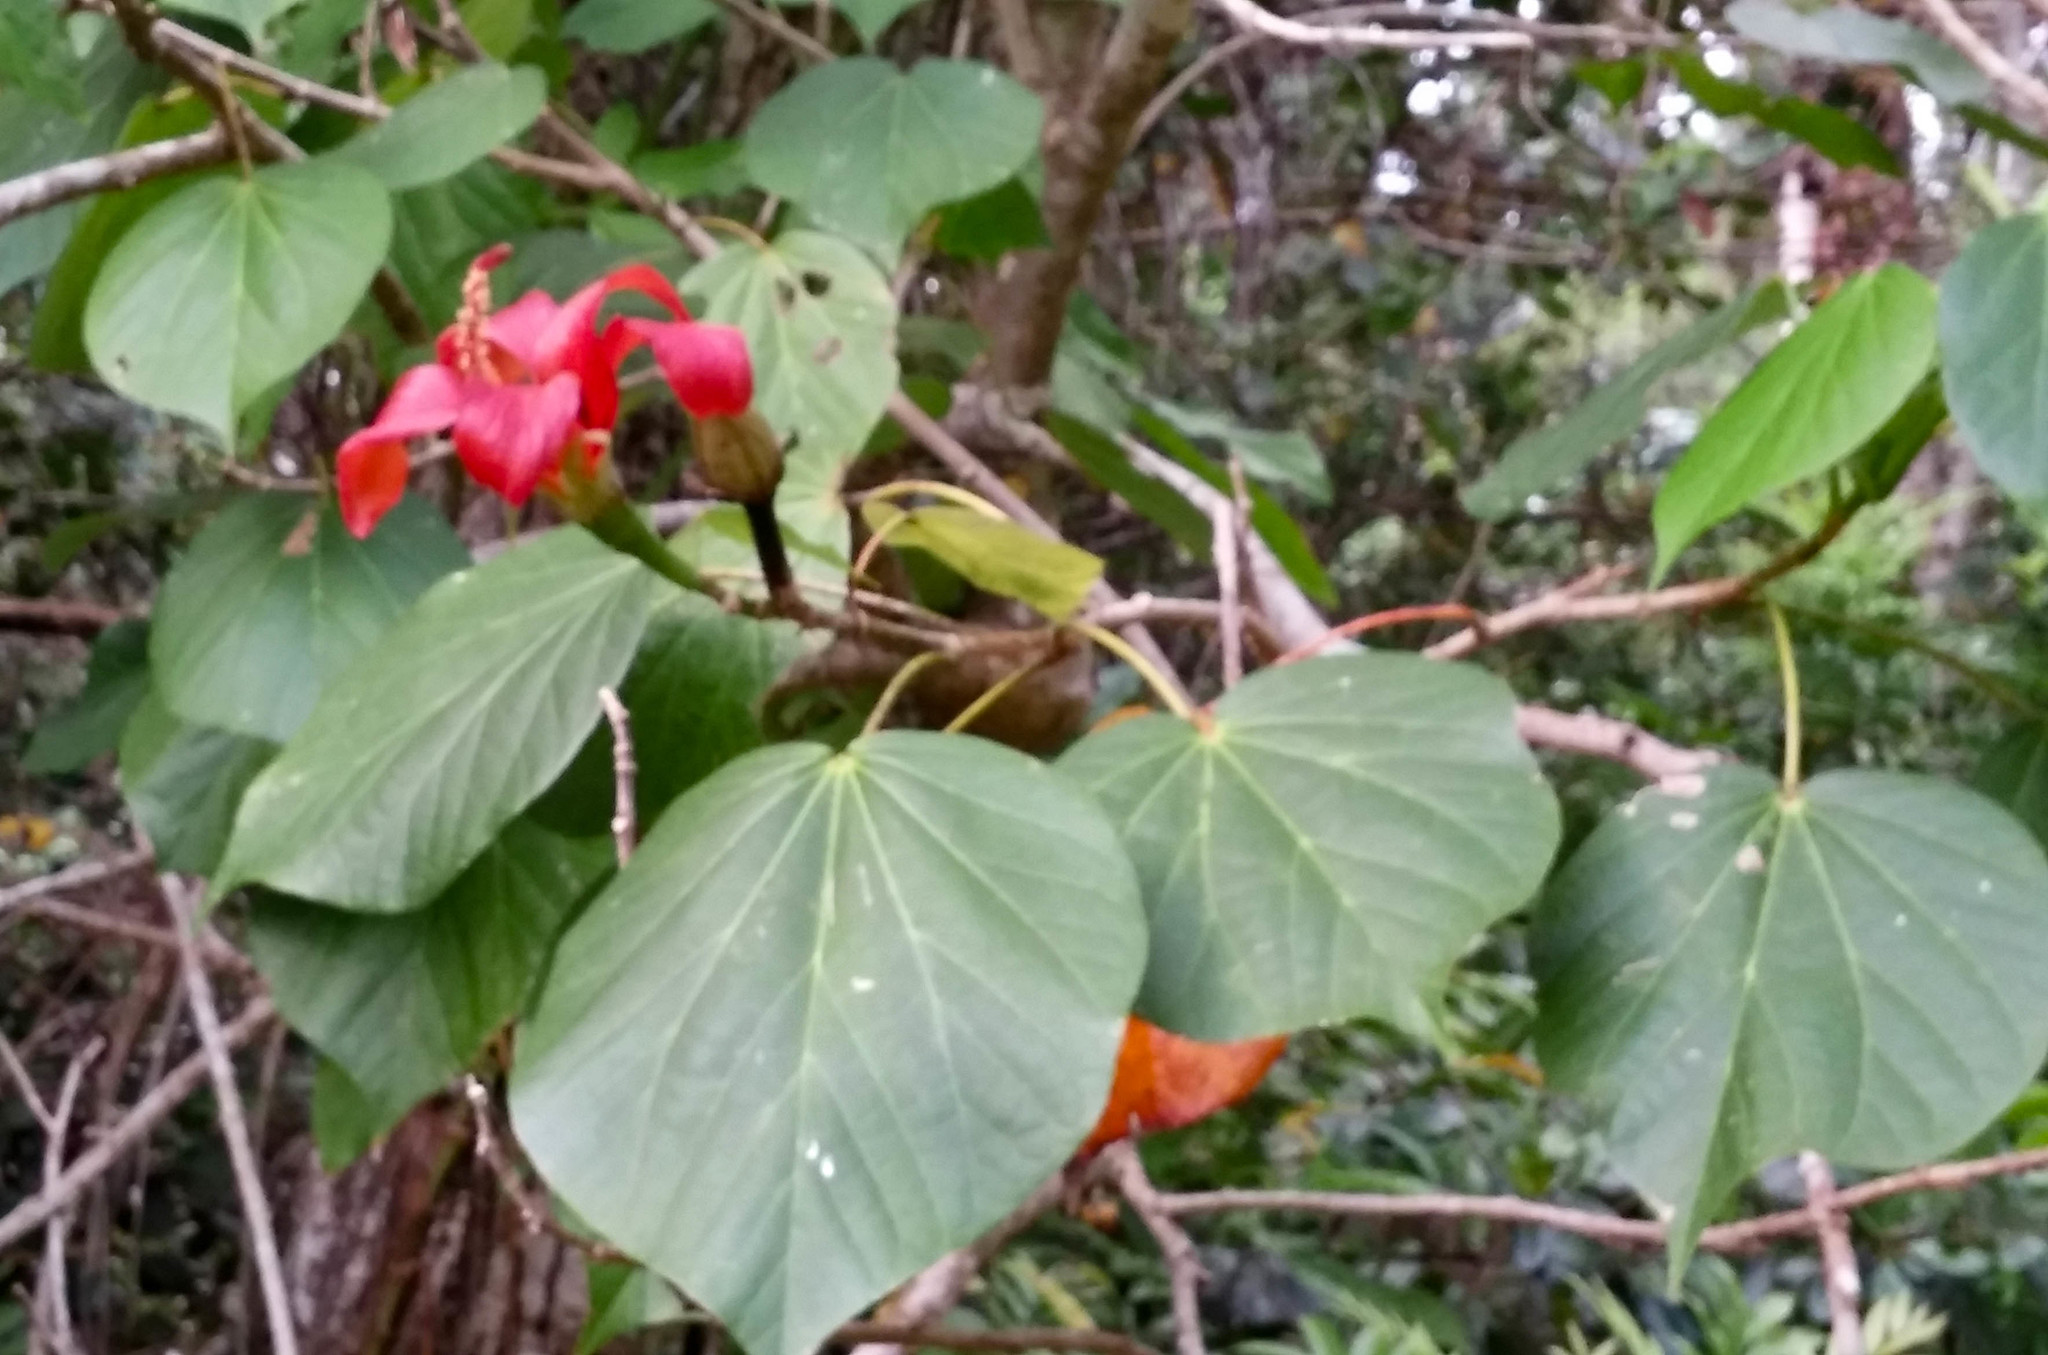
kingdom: Plantae
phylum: Tracheophyta
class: Magnoliopsida
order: Malvales
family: Malvaceae
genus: Talipariti
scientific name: Talipariti
